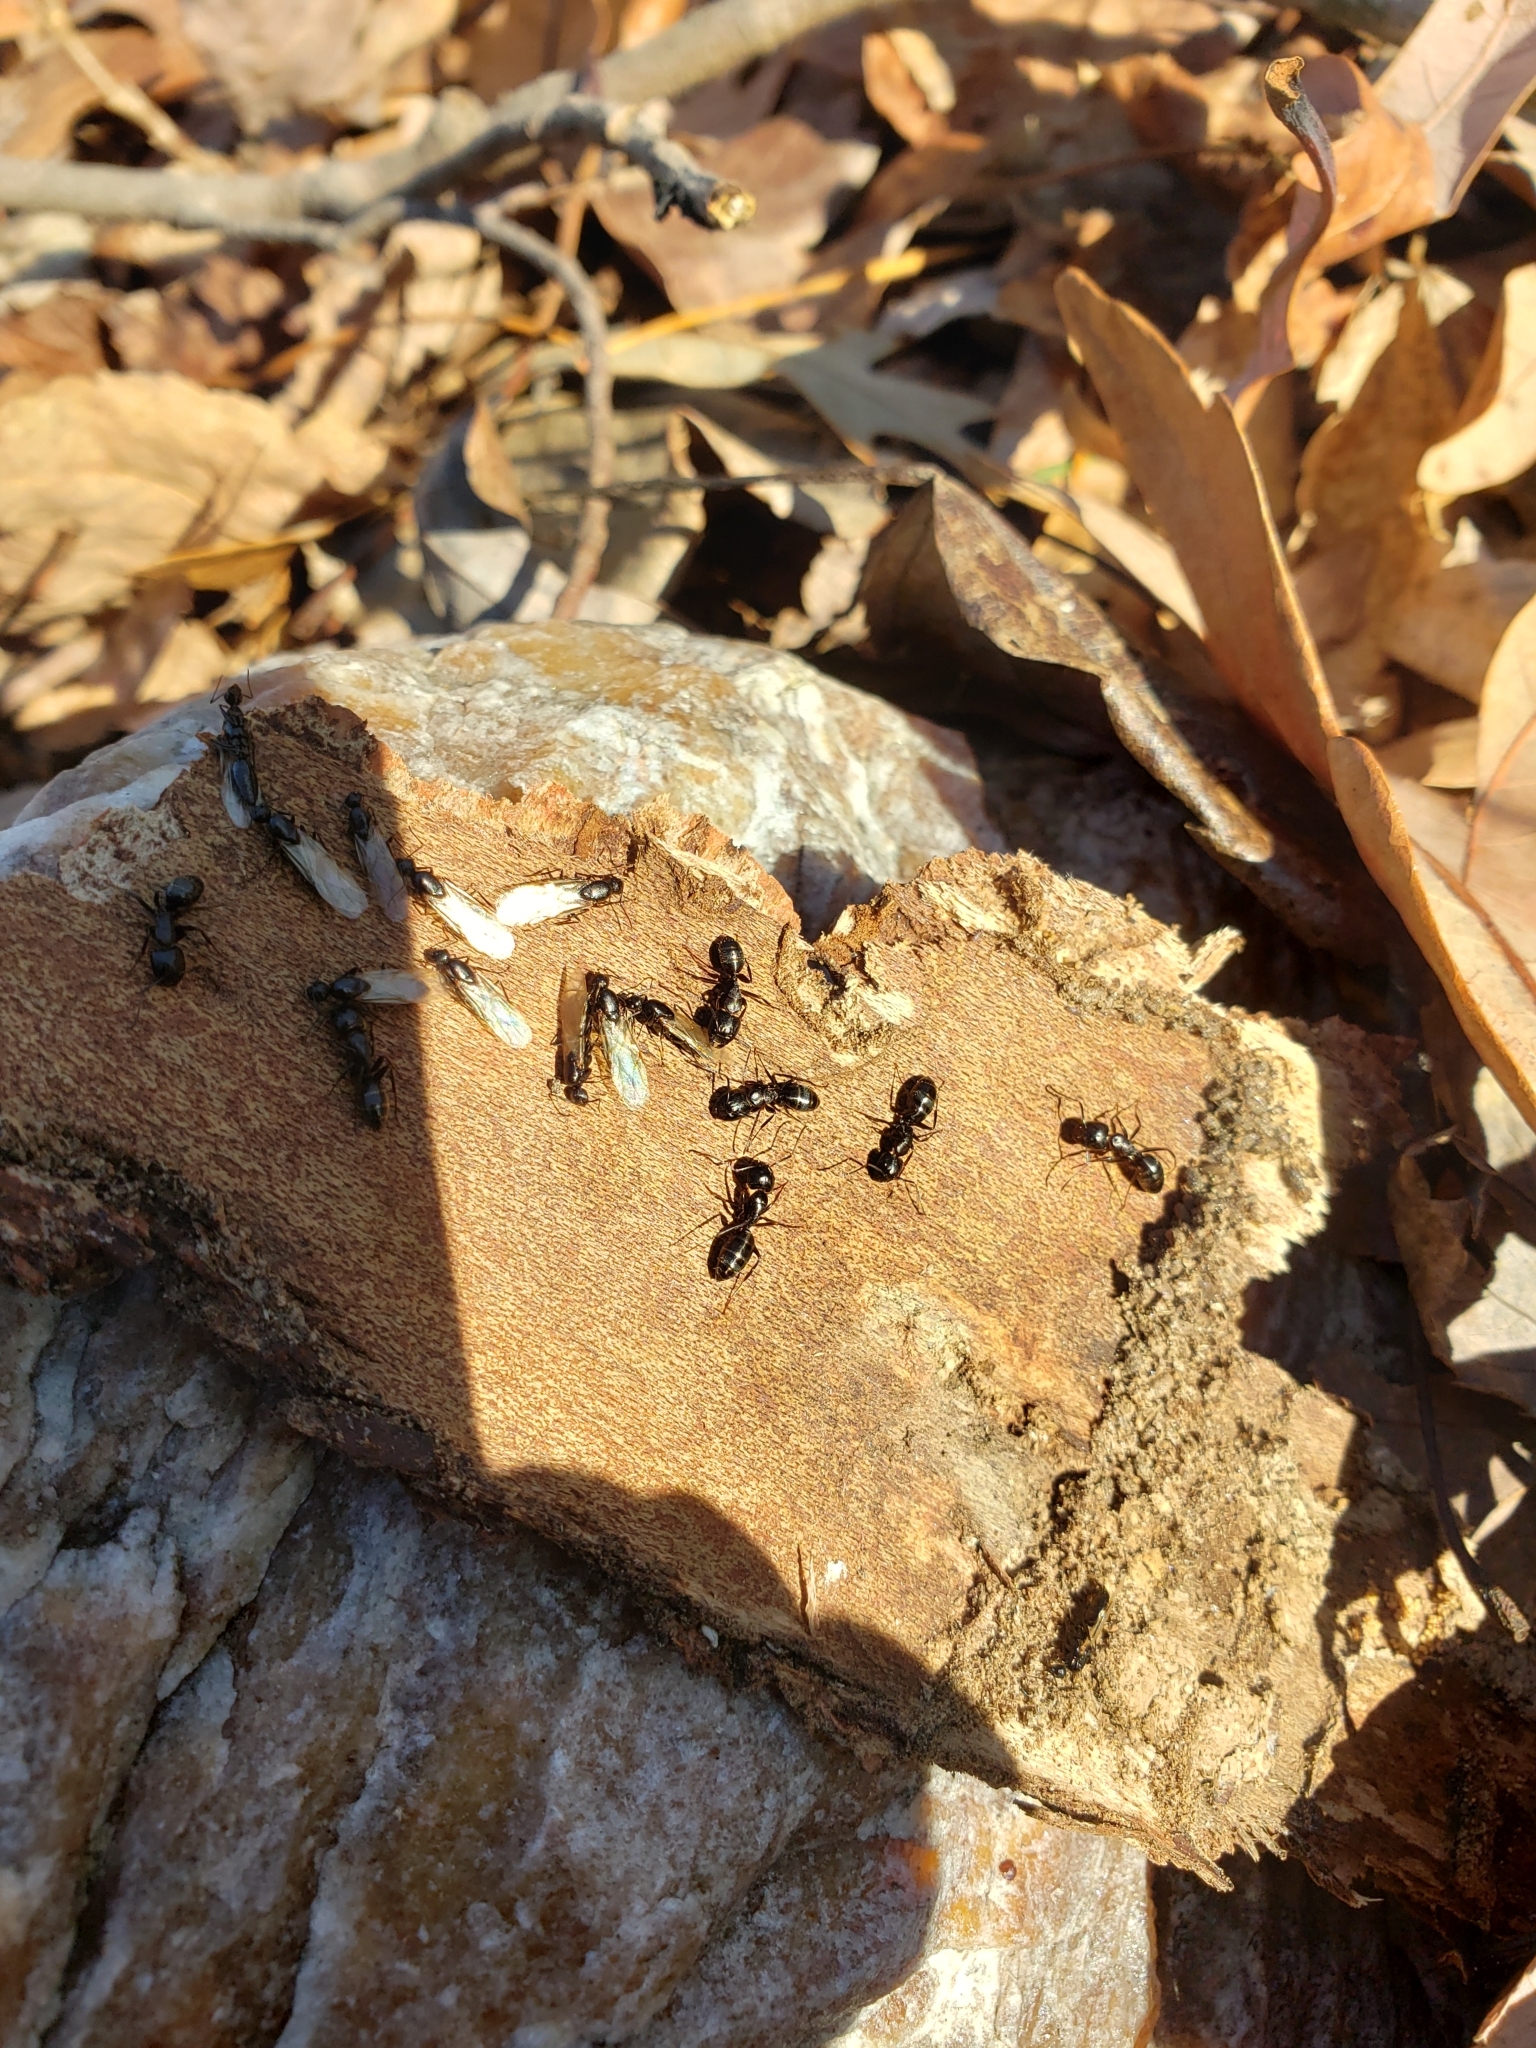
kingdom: Animalia
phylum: Arthropoda
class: Insecta
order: Hymenoptera
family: Formicidae
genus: Camponotus
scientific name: Camponotus nearcticus
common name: Smaller carpenter ant
